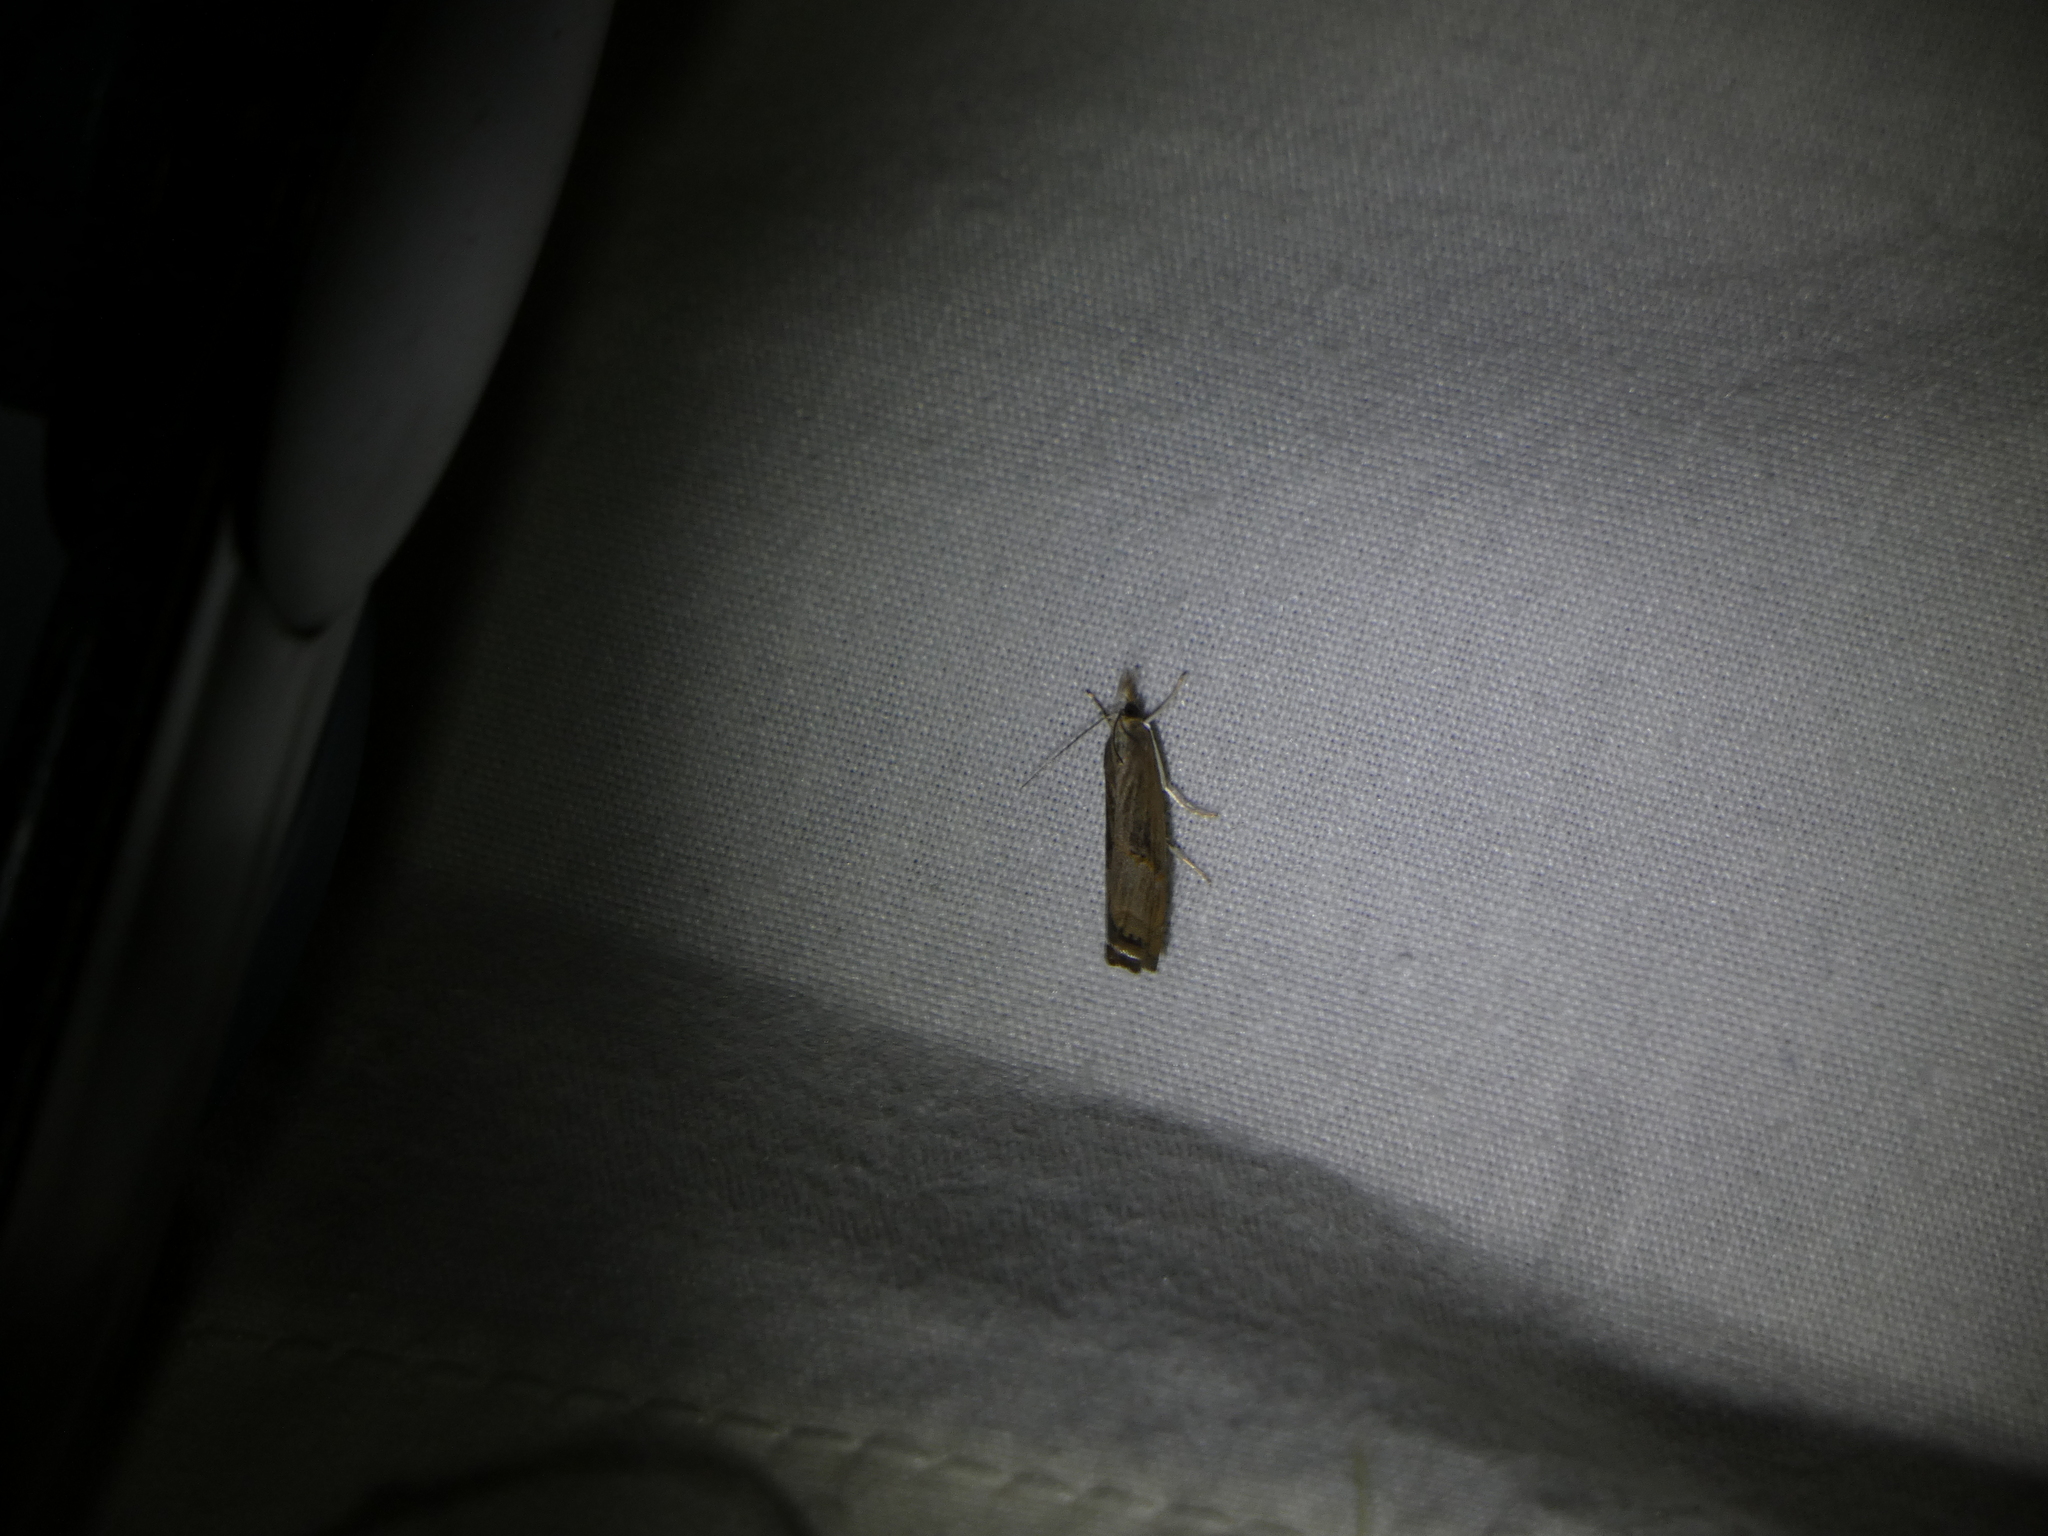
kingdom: Animalia
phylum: Arthropoda
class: Insecta
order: Lepidoptera
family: Crambidae
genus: Parapediasia
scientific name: Parapediasia teterellus
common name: Bluegrass webworm moth
